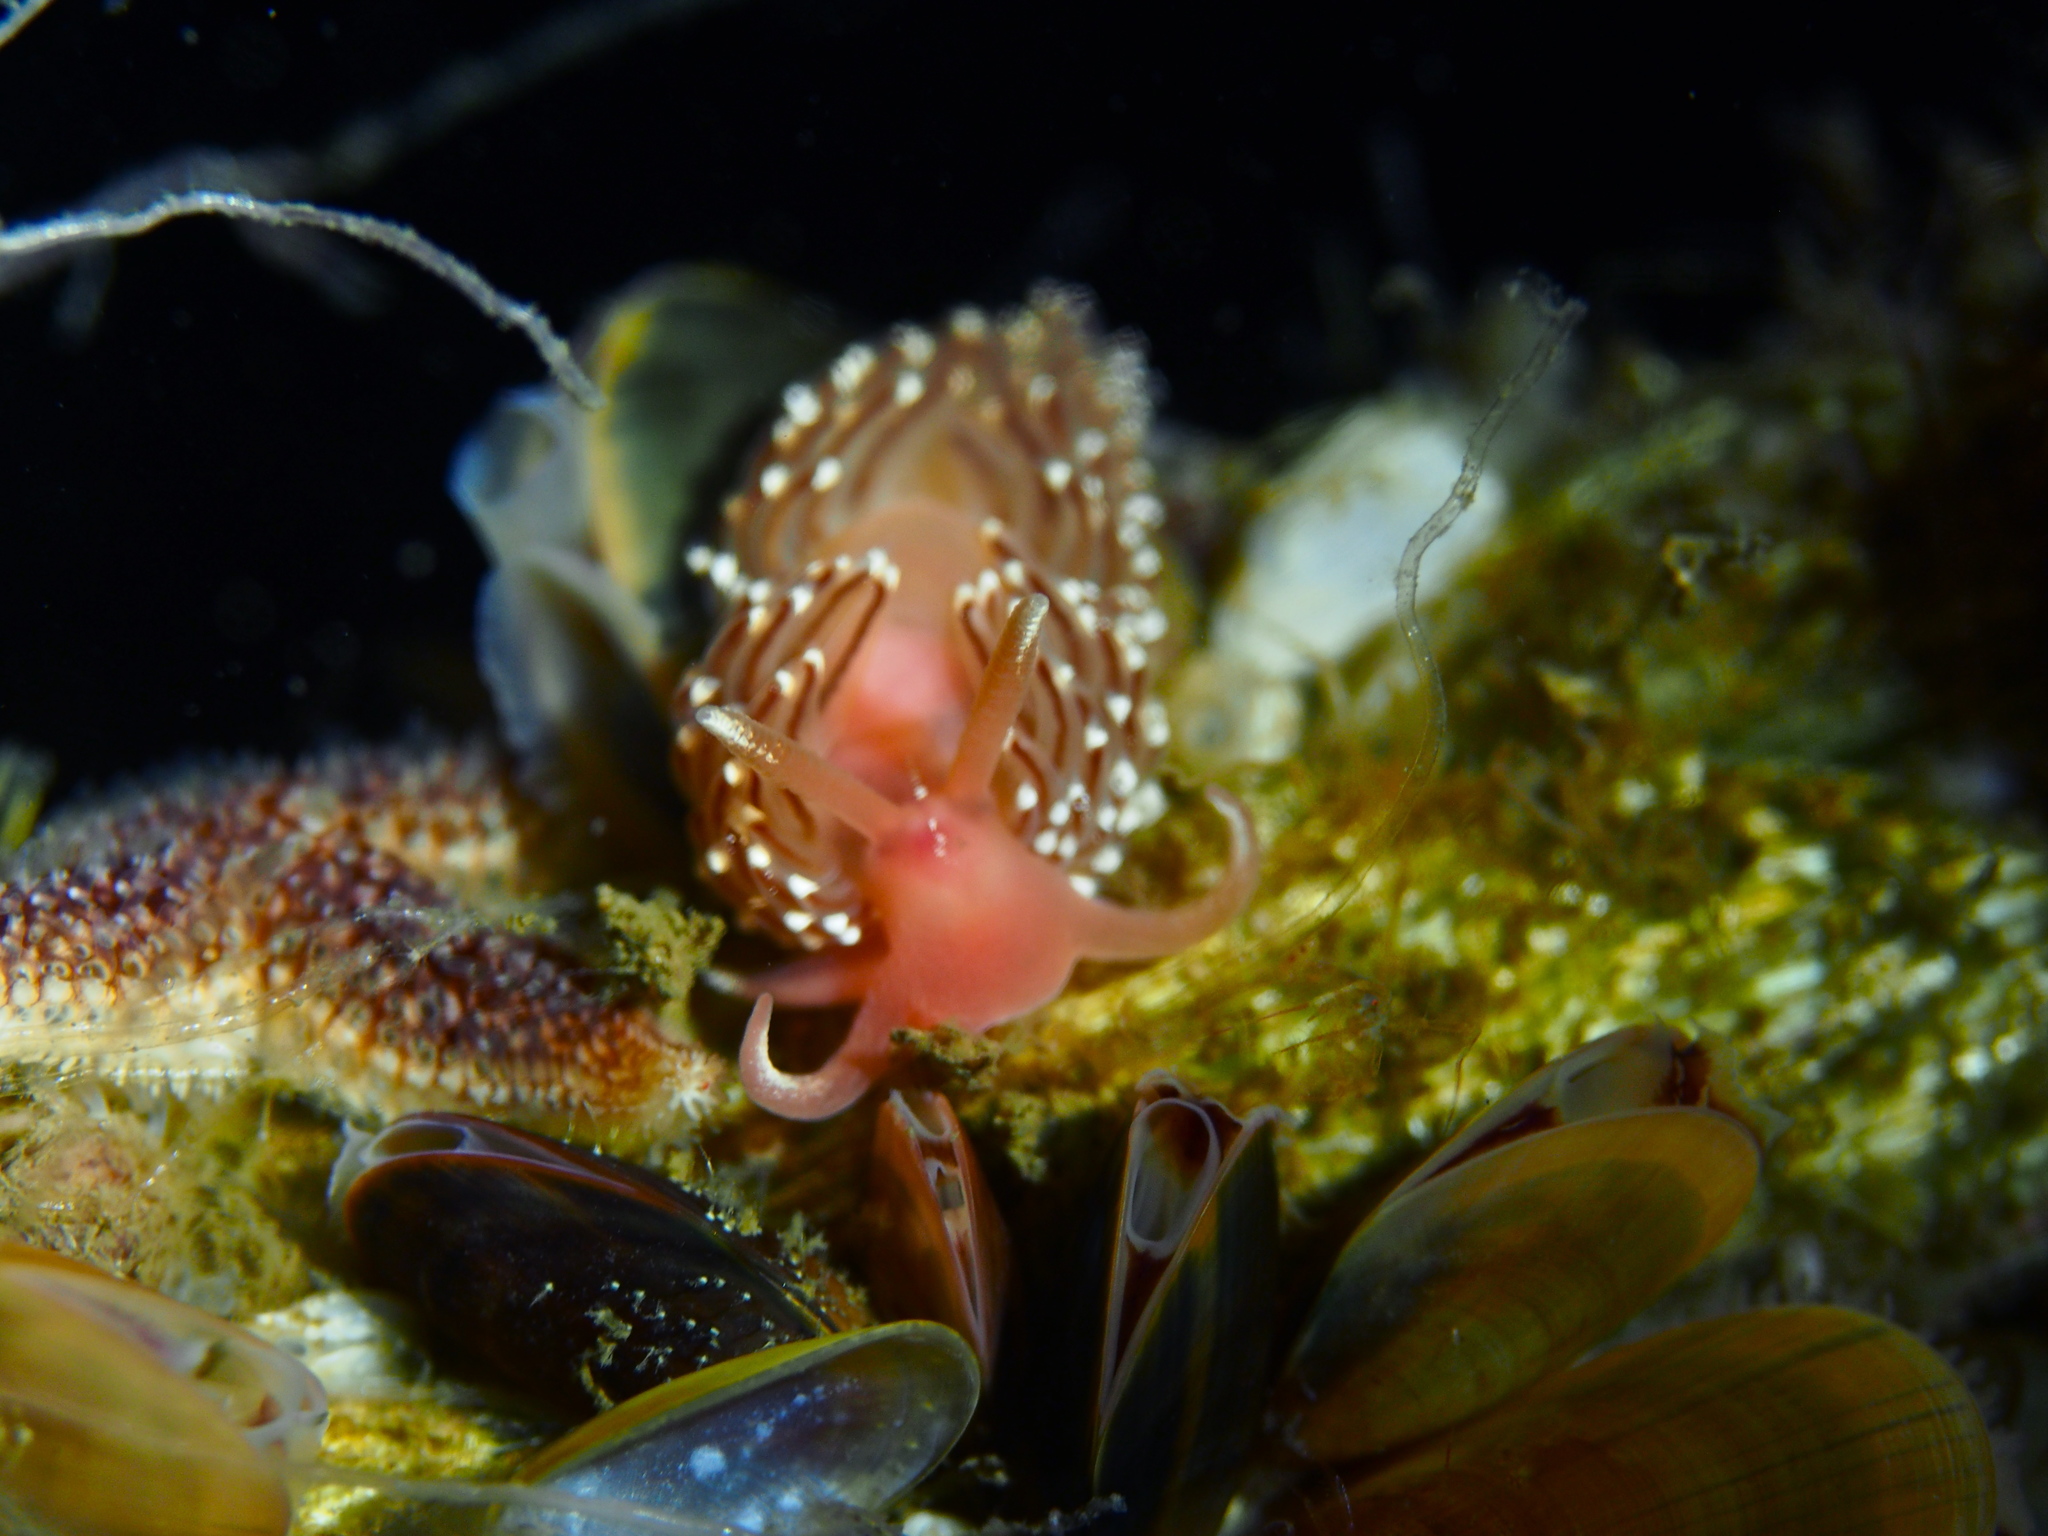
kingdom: Animalia
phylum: Mollusca
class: Gastropoda
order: Nudibranchia
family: Facelinidae
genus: Facelina
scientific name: Facelina bostoniensis
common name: Boston facelina
